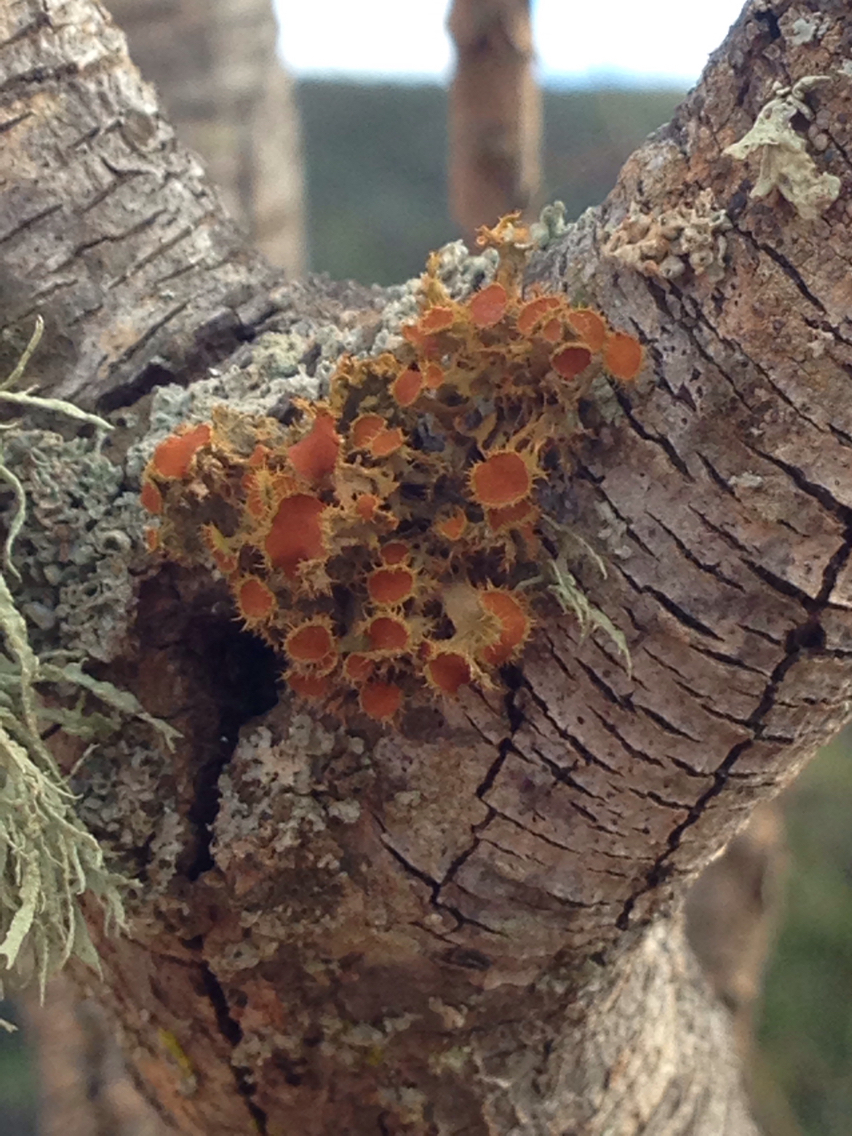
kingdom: Fungi
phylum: Ascomycota
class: Lecanoromycetes
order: Teloschistales
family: Teloschistaceae
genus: Niorma
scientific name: Niorma chrysophthalma
